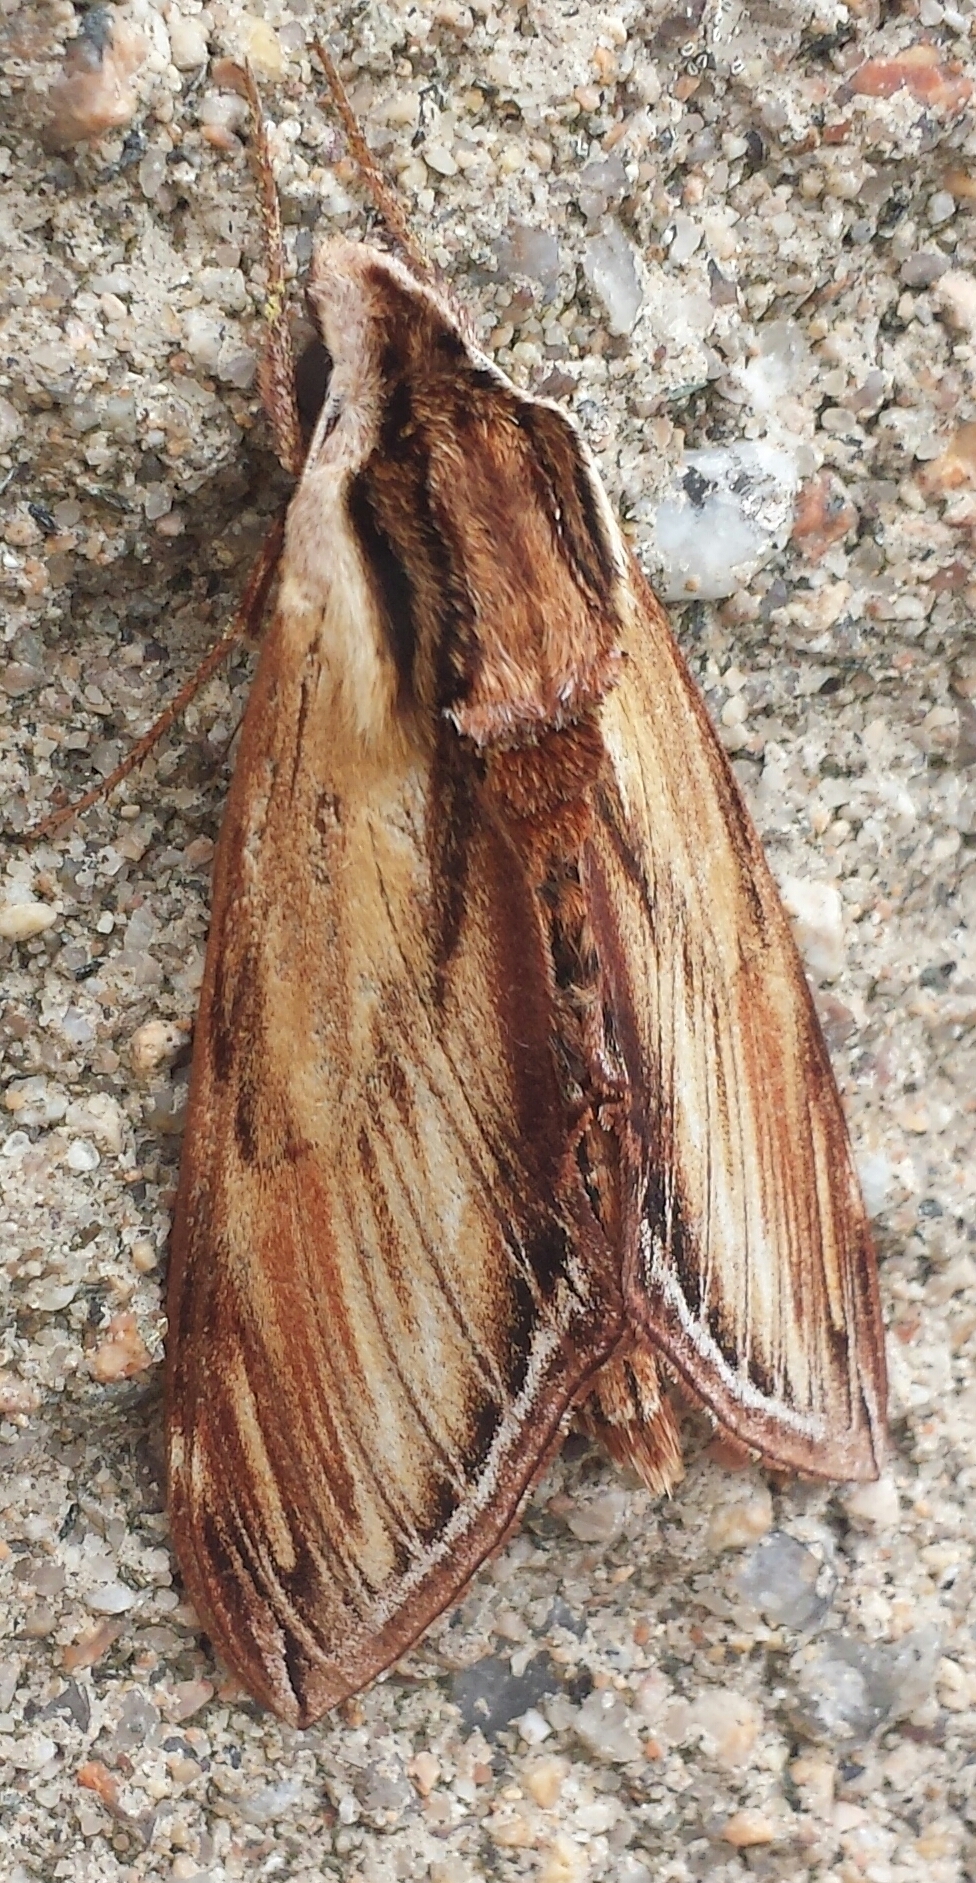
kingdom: Animalia
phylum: Arthropoda
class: Insecta
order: Lepidoptera
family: Sphingidae
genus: Sphinx
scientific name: Sphinx kalmiae
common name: Laurel sphinx
